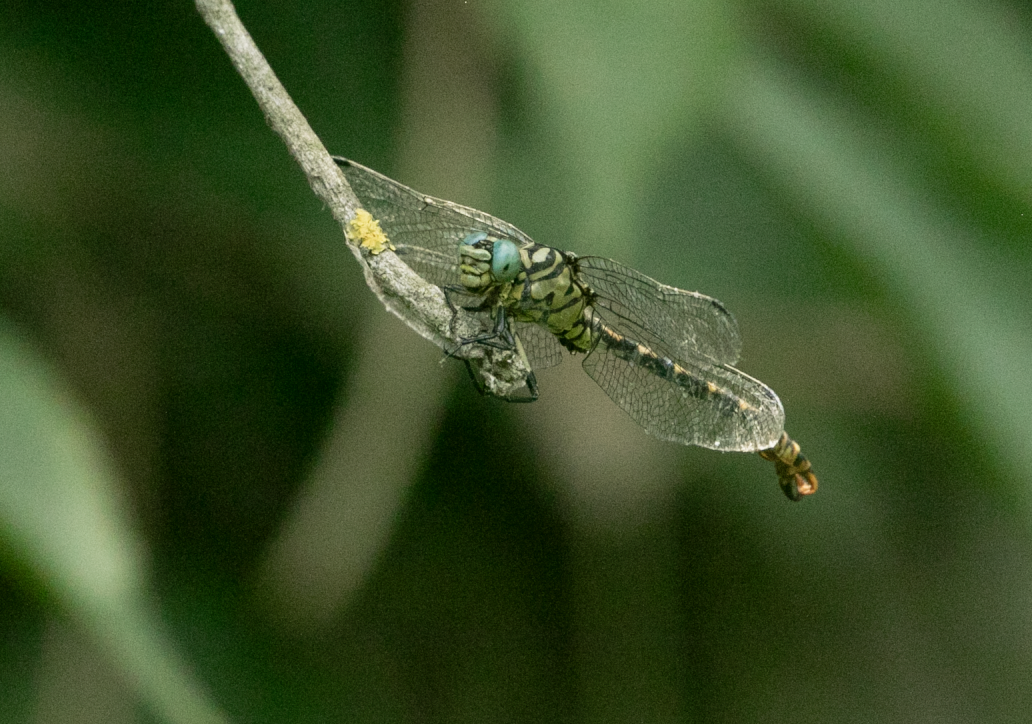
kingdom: Animalia
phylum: Arthropoda
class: Insecta
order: Odonata
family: Gomphidae
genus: Onychogomphus
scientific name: Onychogomphus forcipatus
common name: Small pincertail
